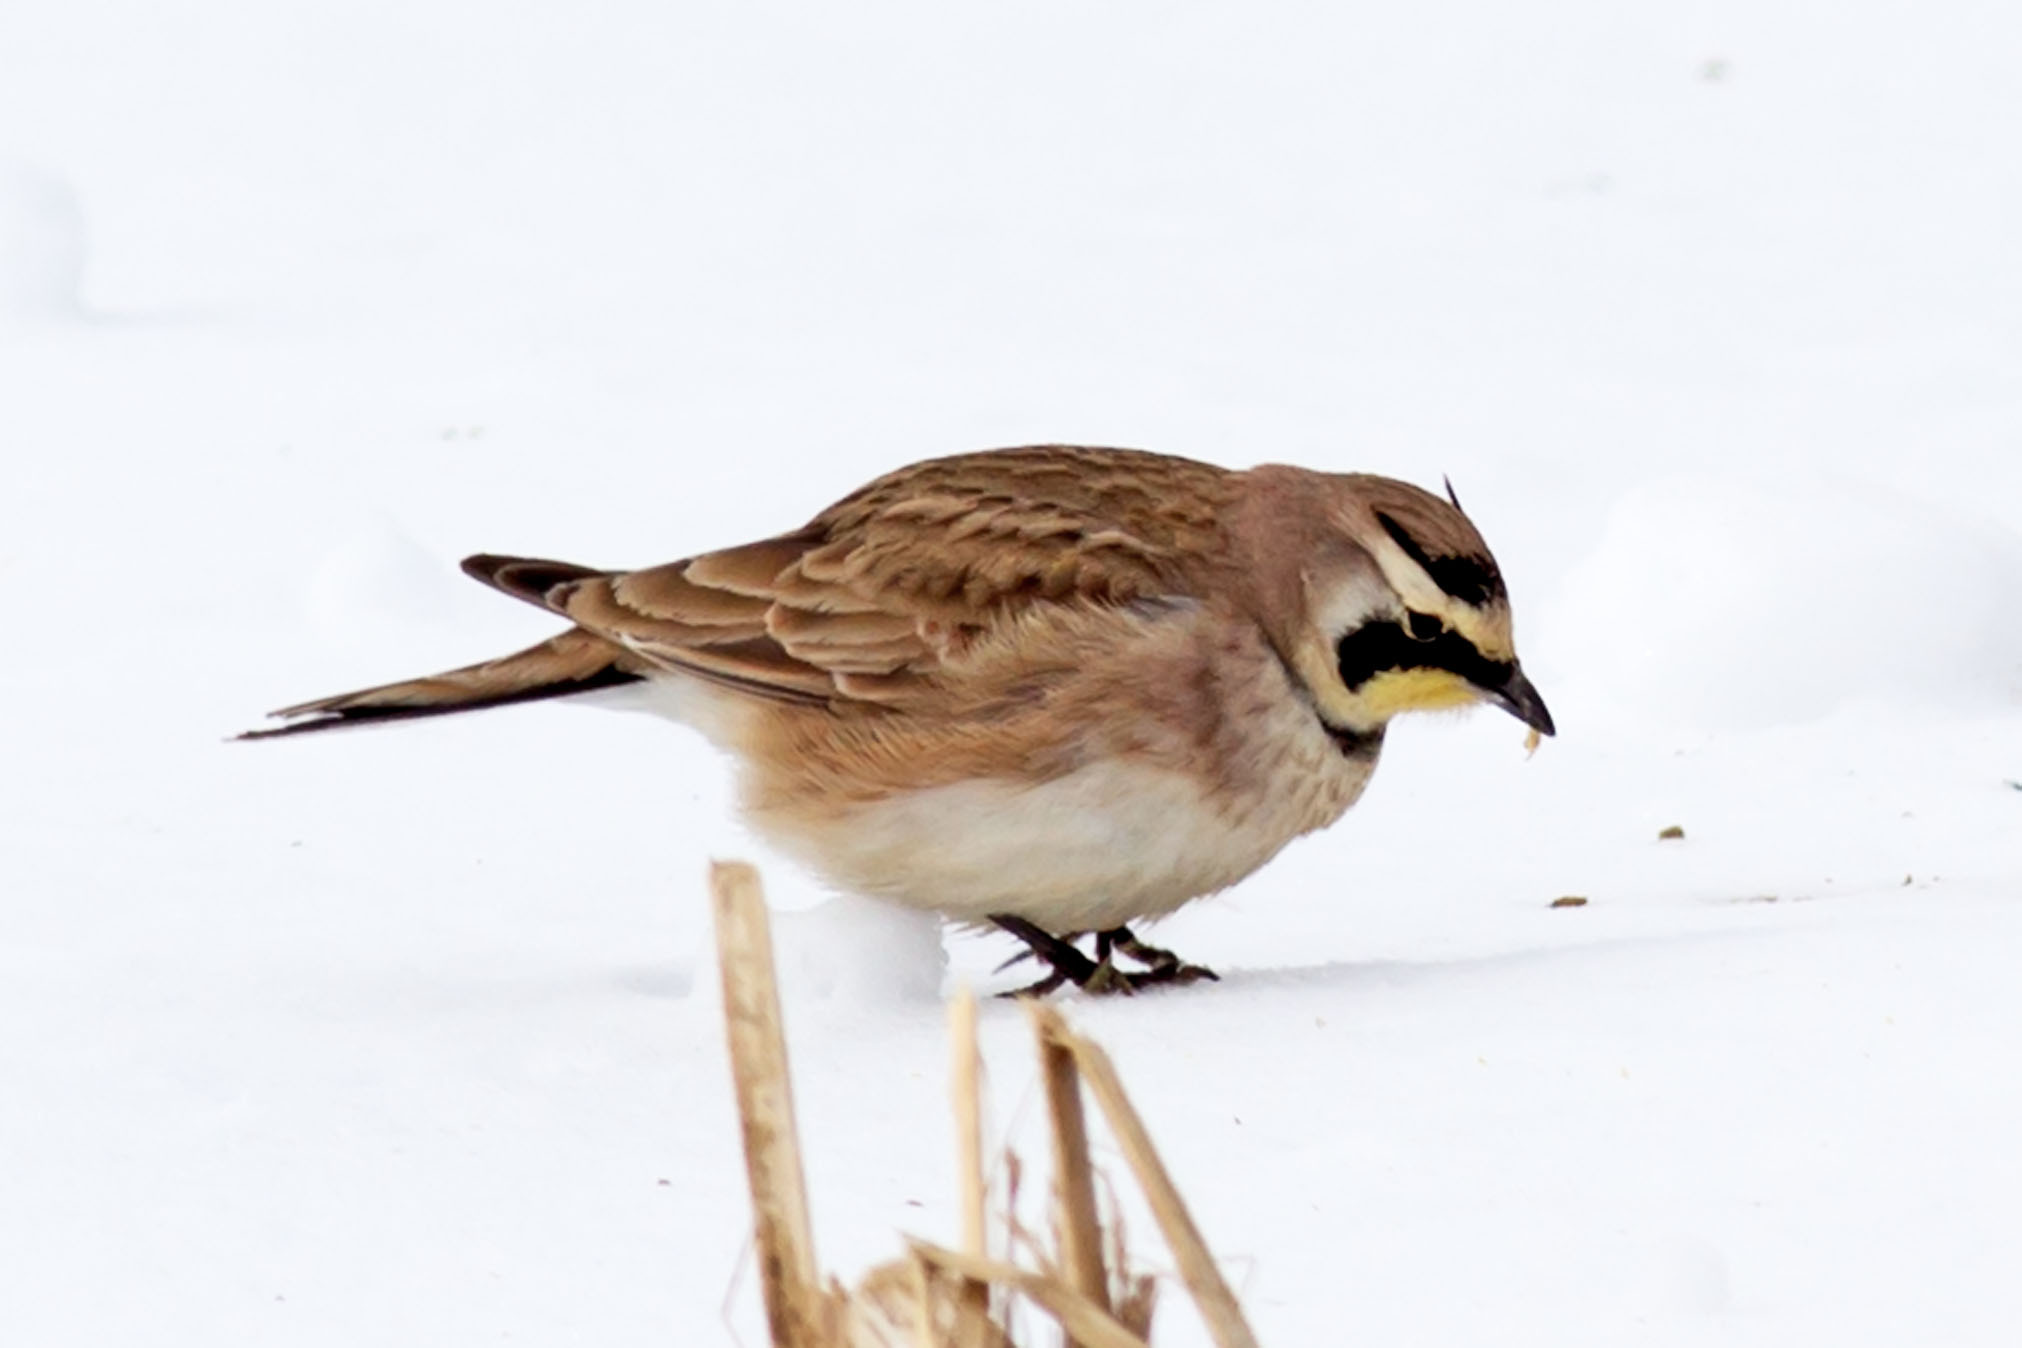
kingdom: Animalia
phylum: Chordata
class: Aves
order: Passeriformes
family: Alaudidae
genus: Eremophila
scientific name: Eremophila alpestris
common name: Horned lark
